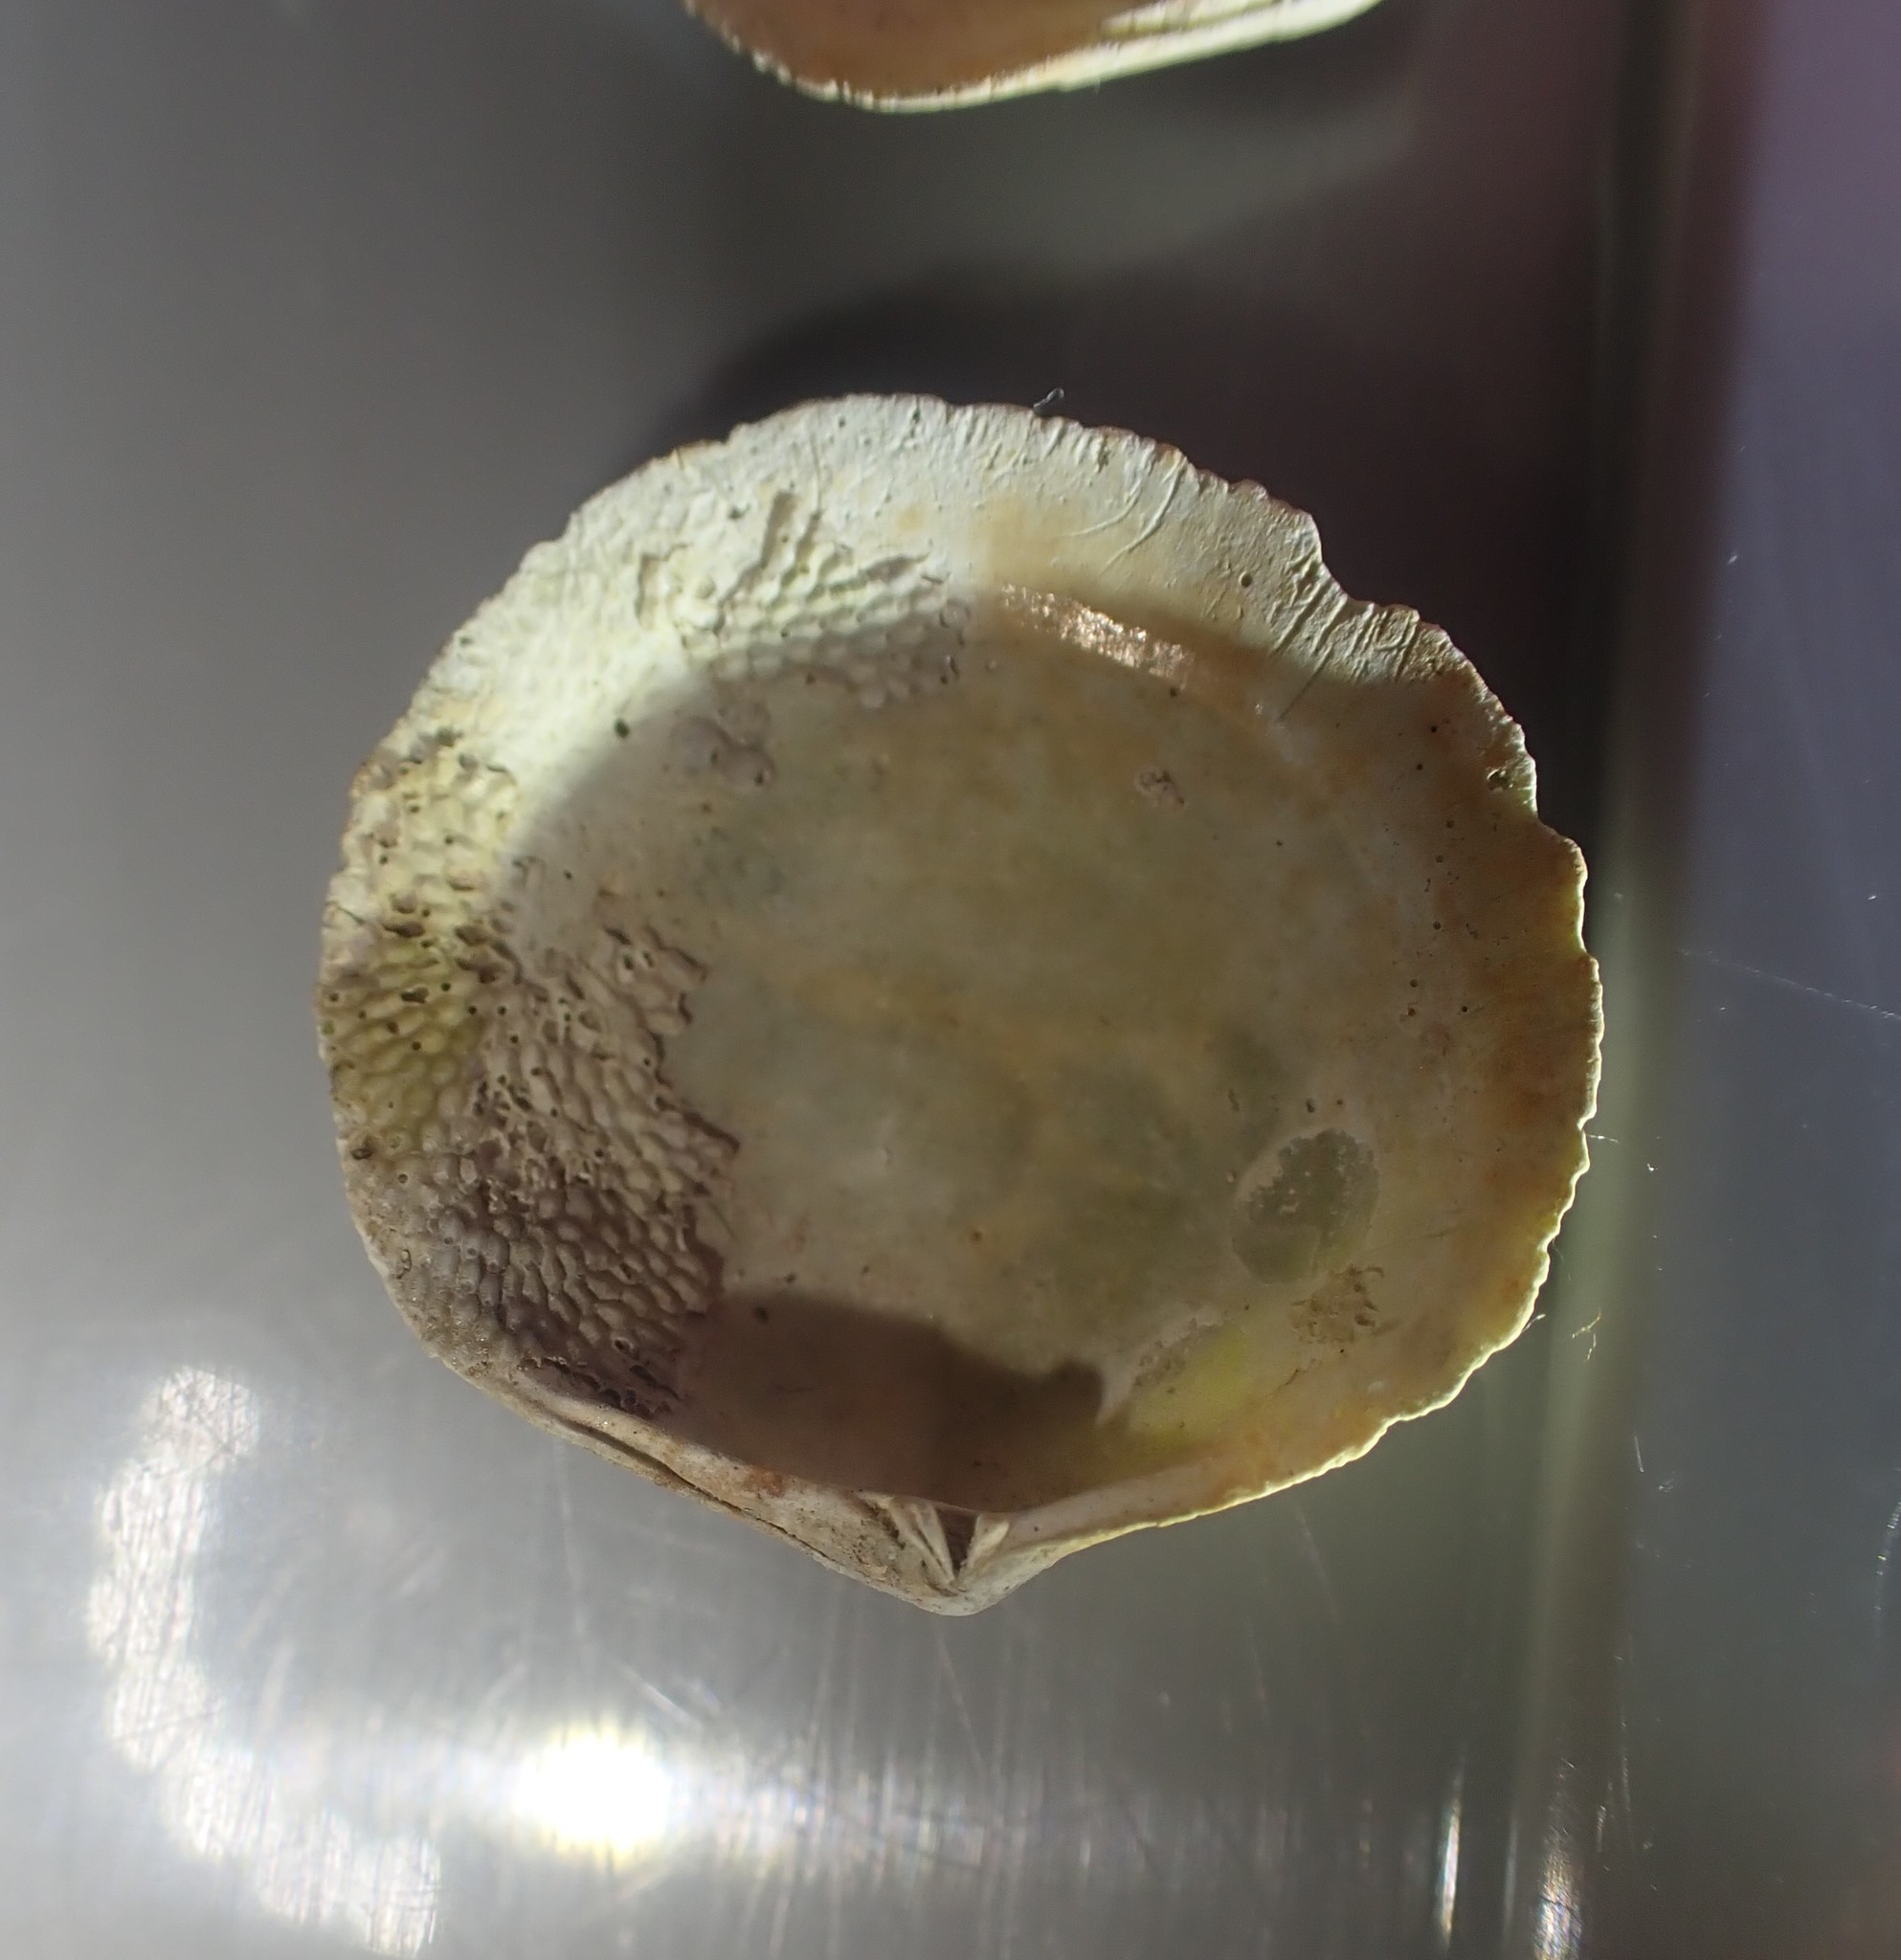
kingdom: Animalia
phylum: Mollusca
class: Bivalvia
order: Venerida
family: Ungulinidae
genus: Zemysia
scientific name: Zemysia zelandica
